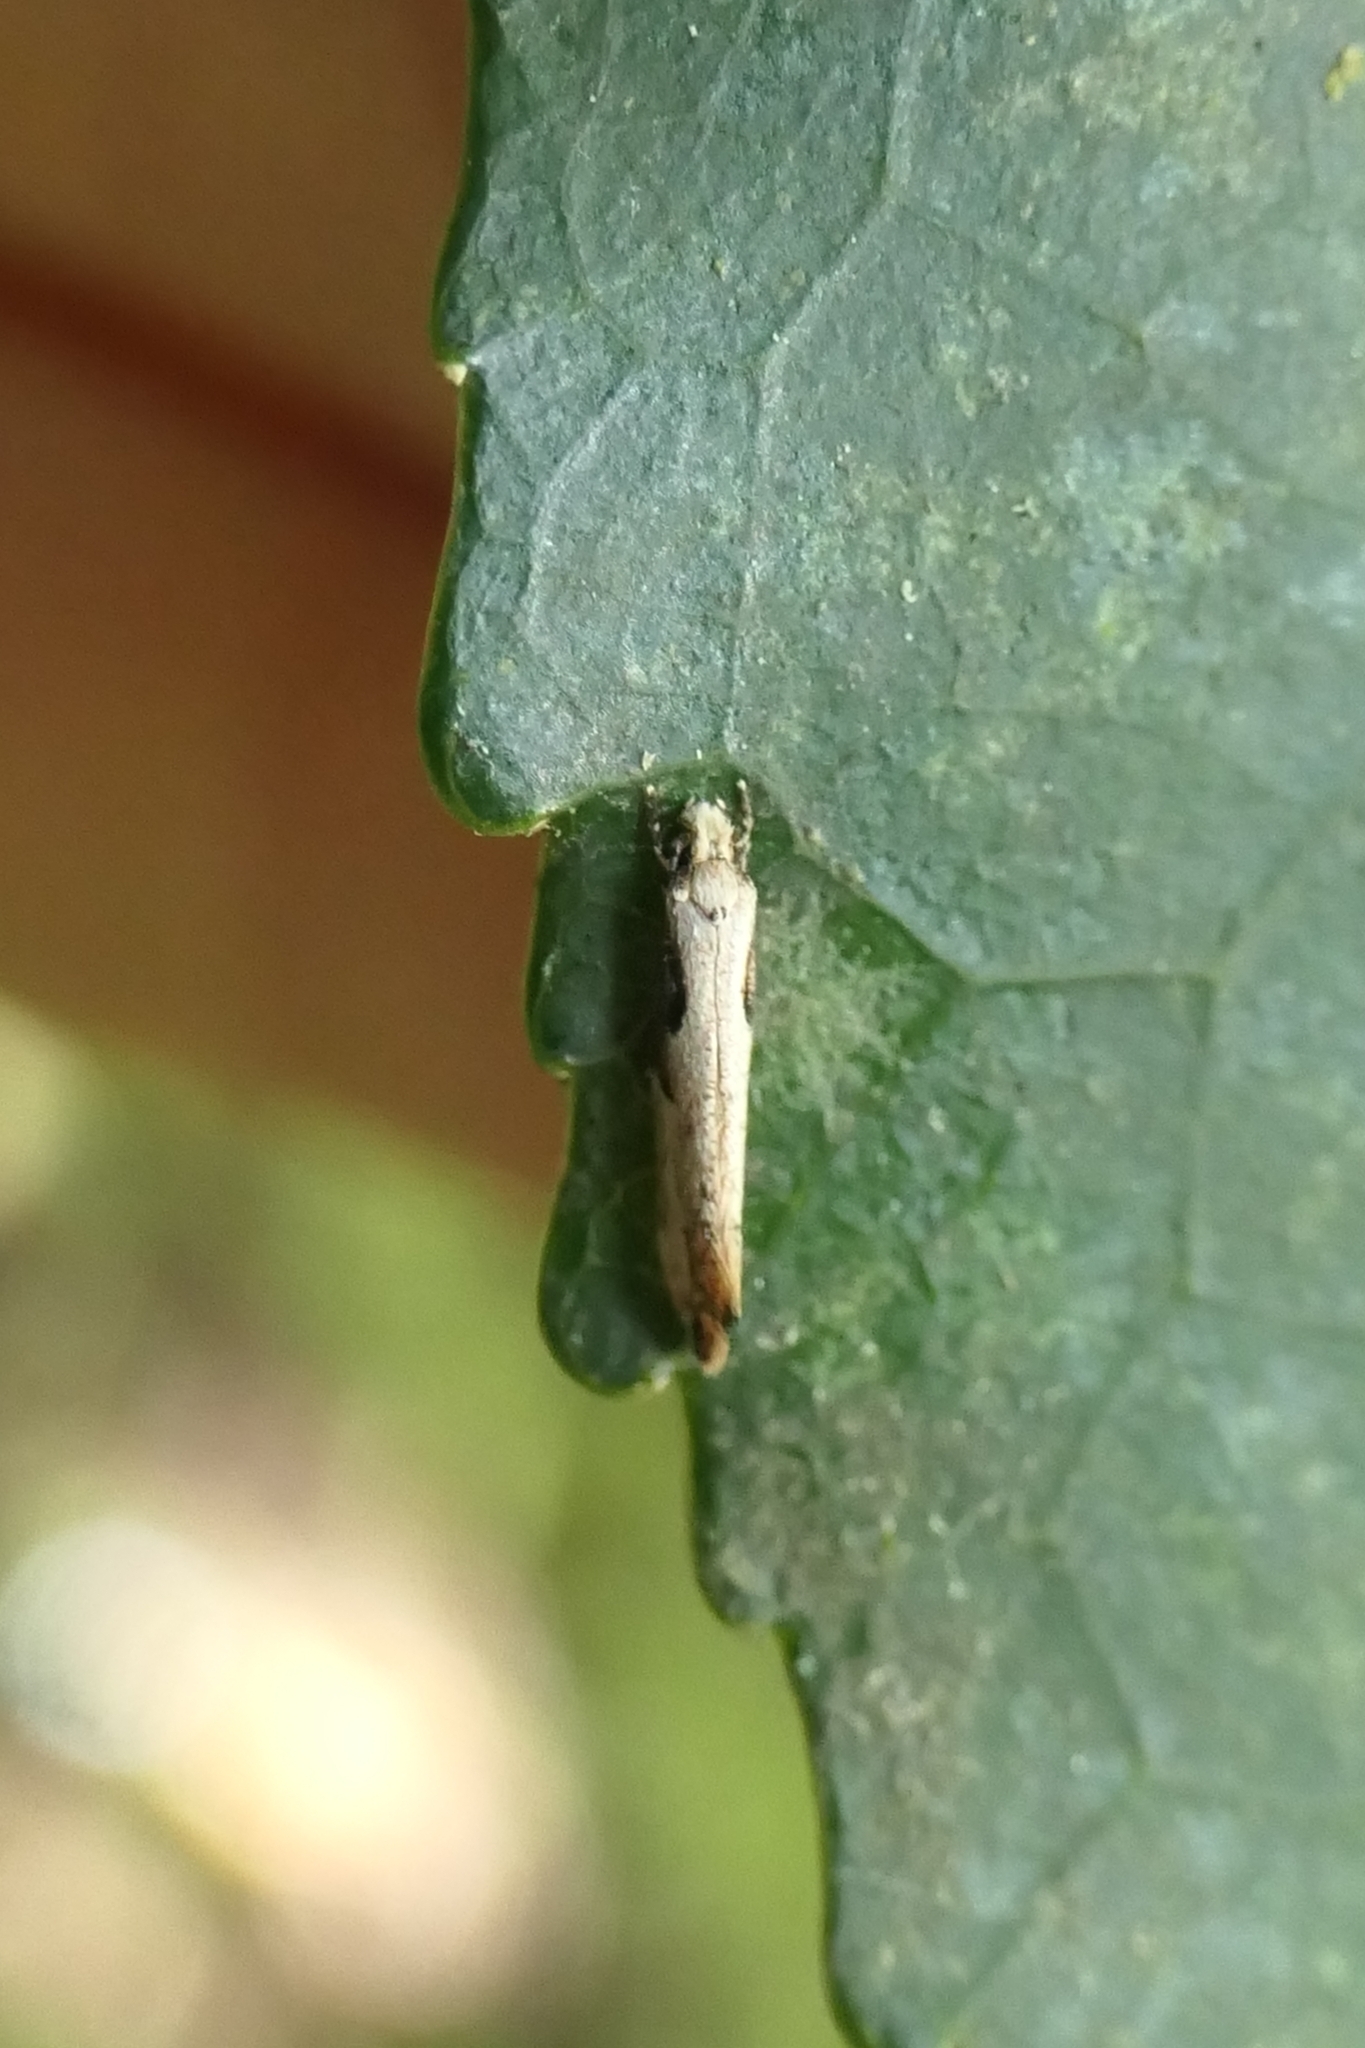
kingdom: Animalia
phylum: Arthropoda
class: Insecta
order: Lepidoptera
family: Tineidae
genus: Crypsitricha
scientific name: Crypsitricha pharotoma
